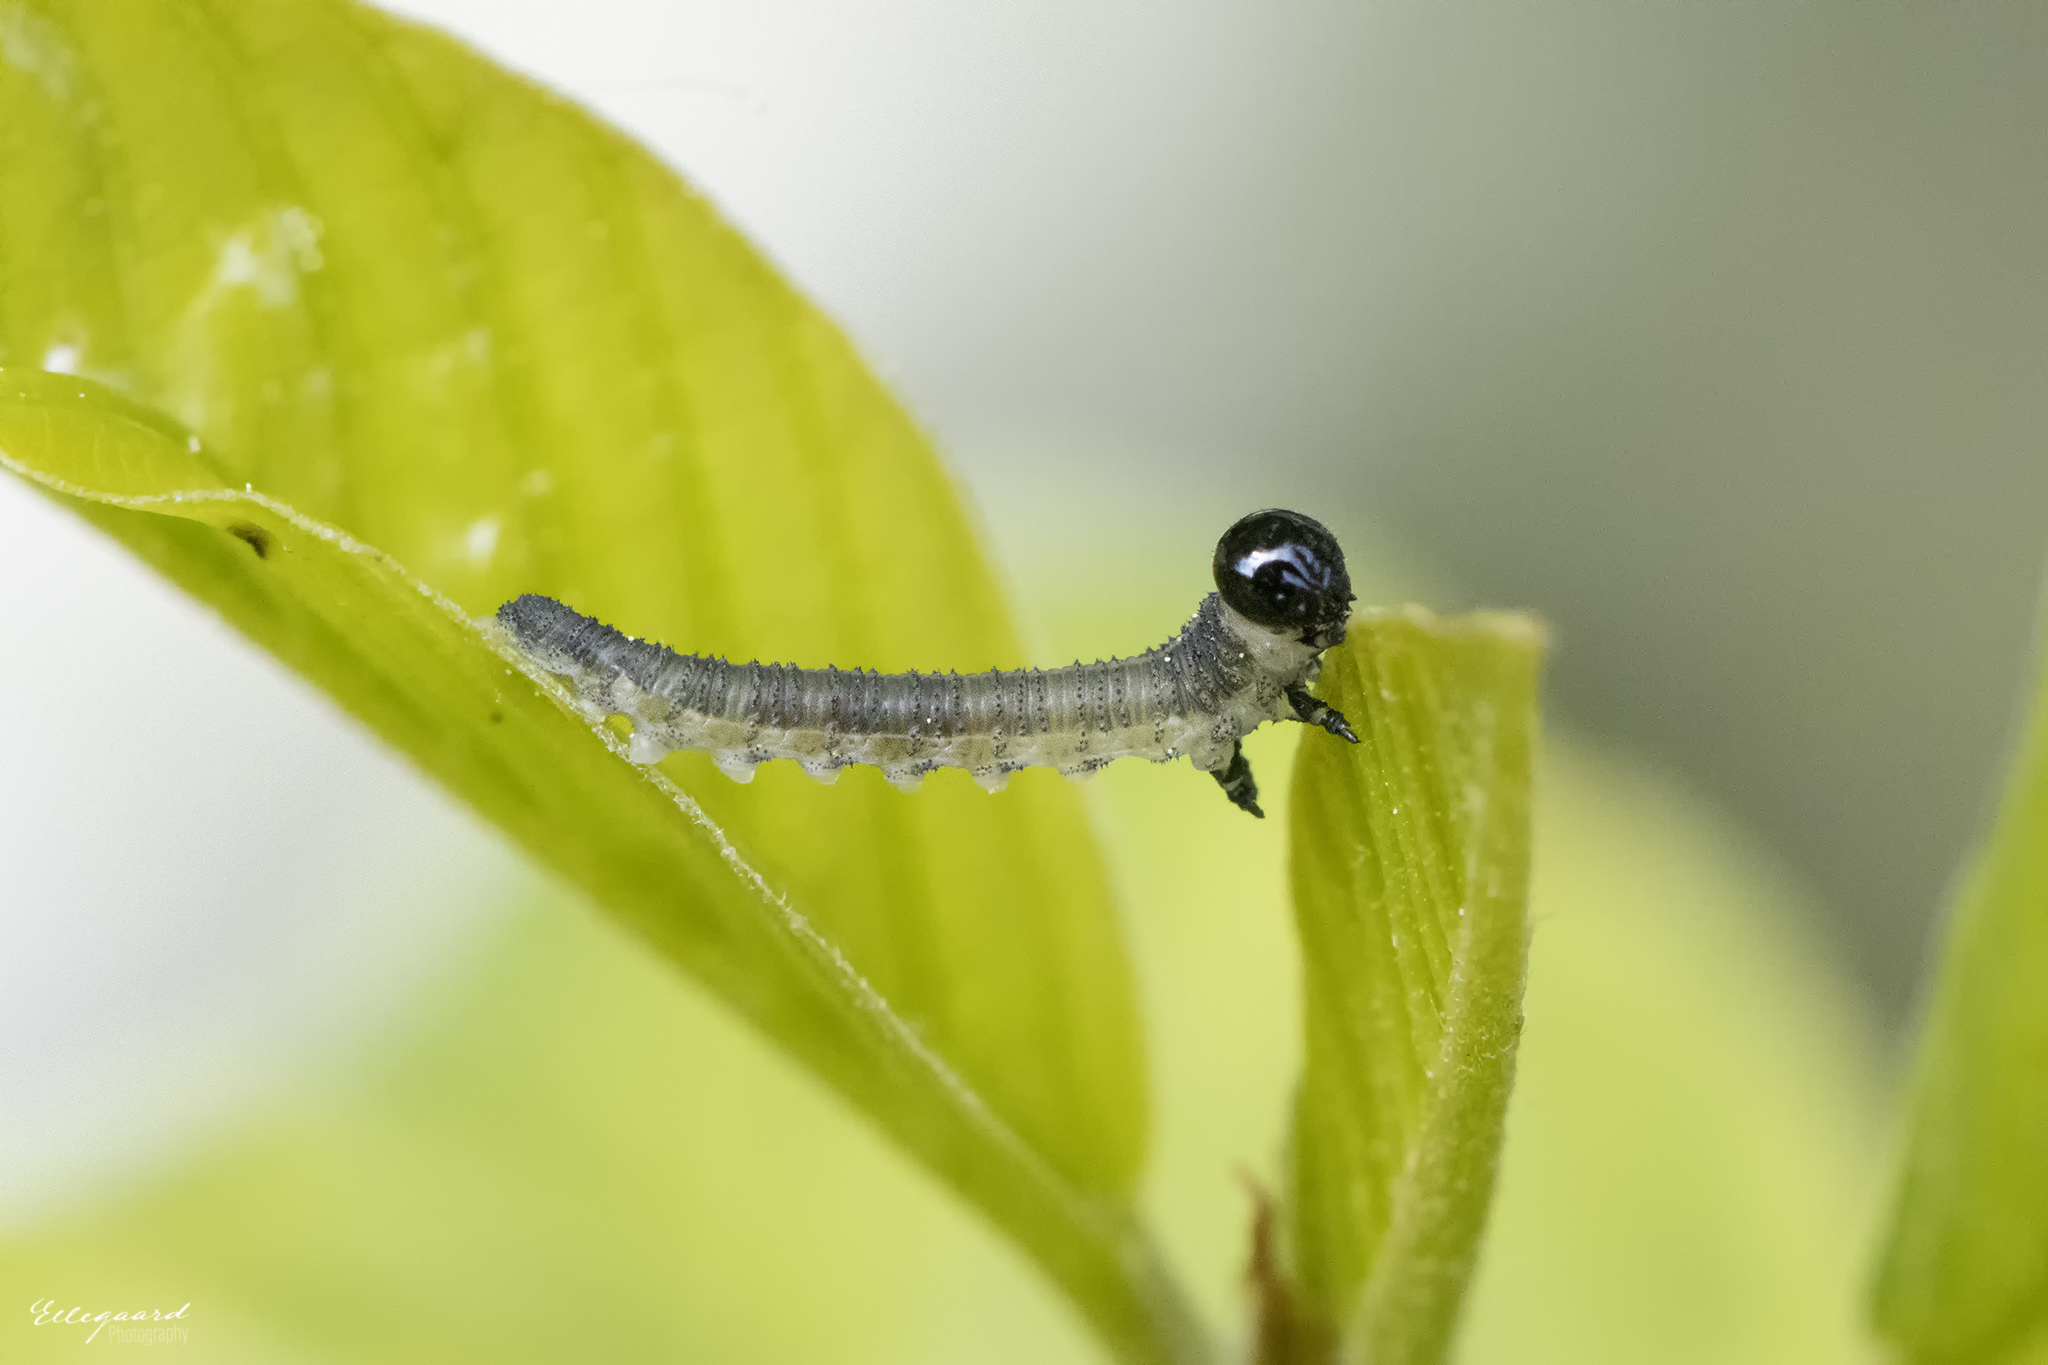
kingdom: Animalia
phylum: Arthropoda
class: Insecta
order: Hymenoptera
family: Diprionidae
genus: Neodiprion
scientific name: Neodiprion sertifer
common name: European pine sawfly
